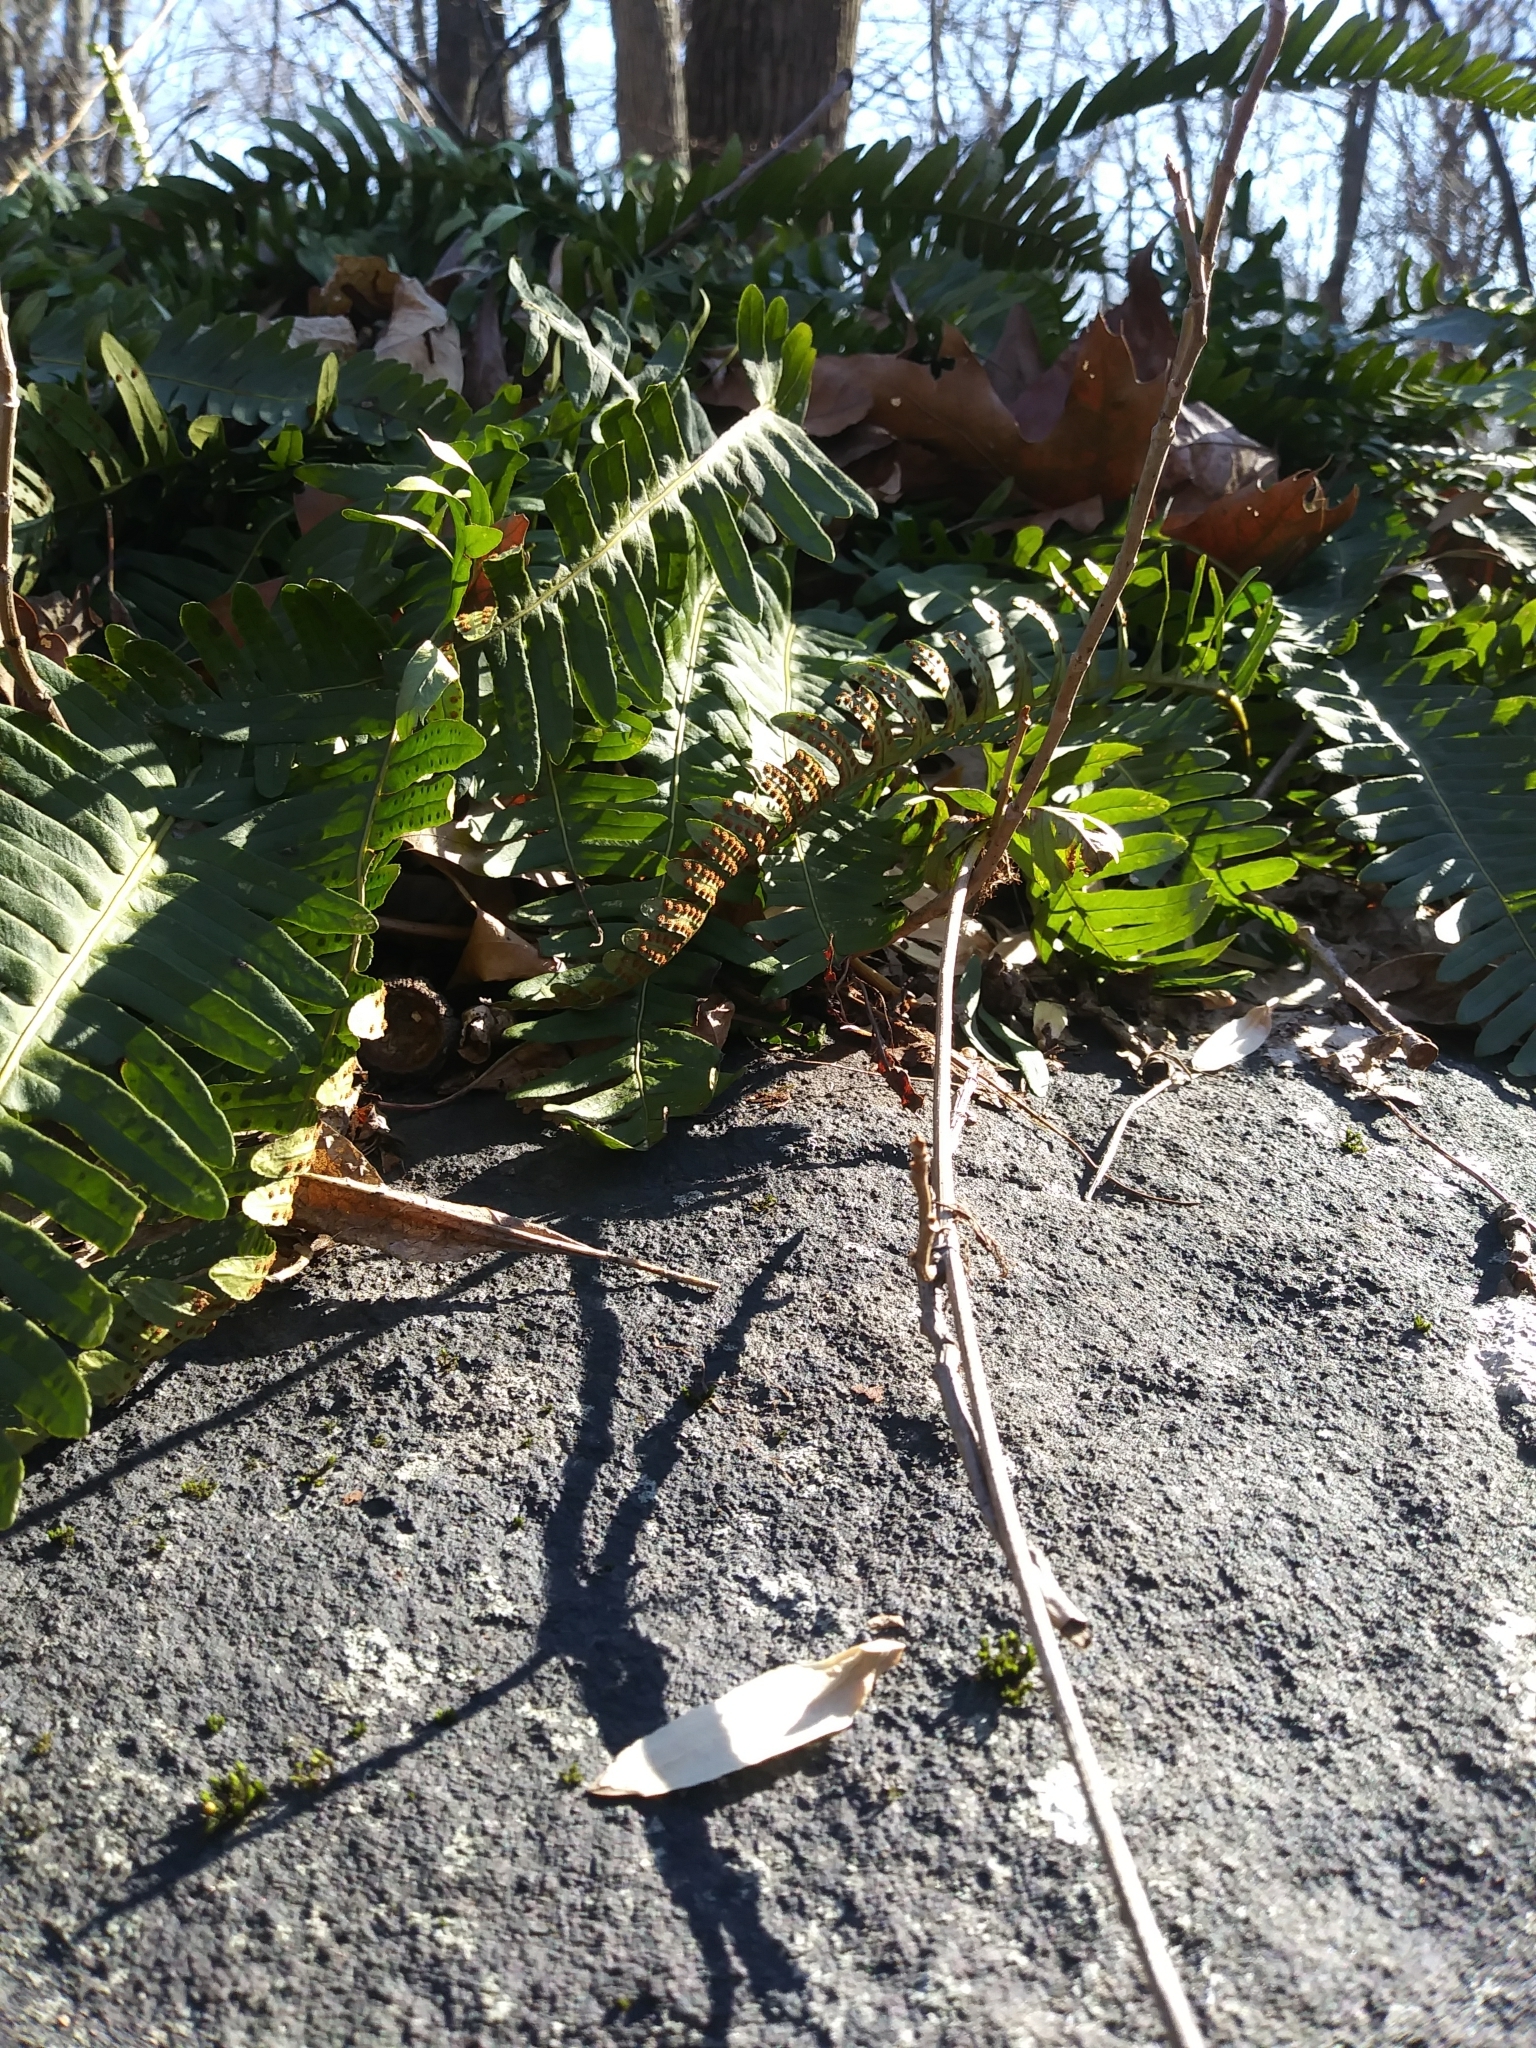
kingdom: Plantae
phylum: Tracheophyta
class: Polypodiopsida
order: Polypodiales
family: Polypodiaceae
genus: Polypodium
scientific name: Polypodium virginianum
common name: American wall fern
